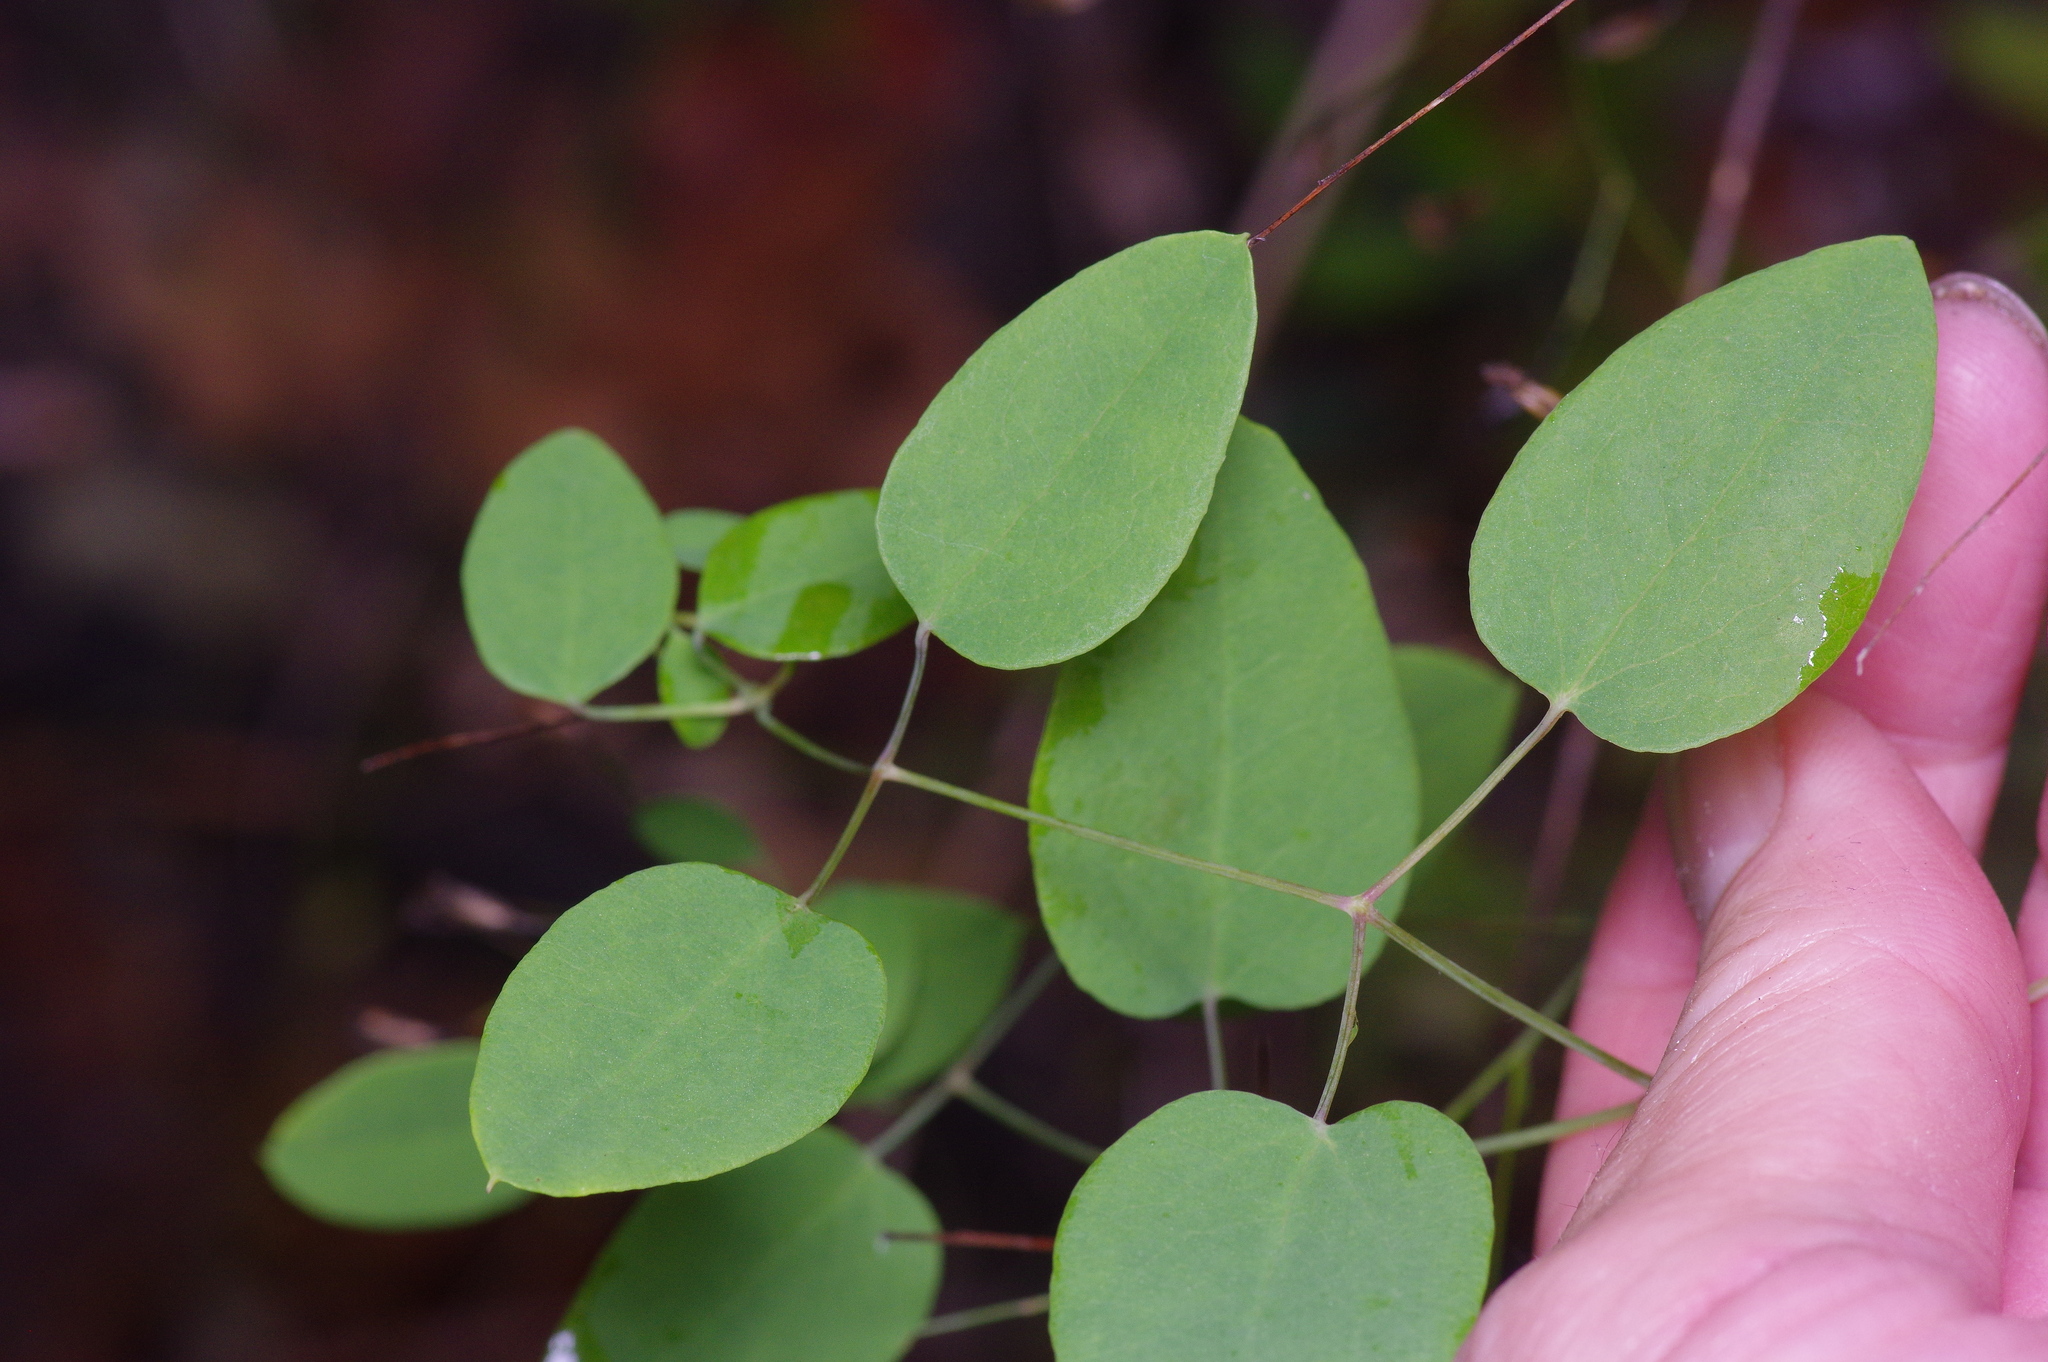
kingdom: Plantae
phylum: Tracheophyta
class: Magnoliopsida
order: Ranunculales
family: Ranunculaceae
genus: Clematis
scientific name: Clematis texensis
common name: Crimson clematis
